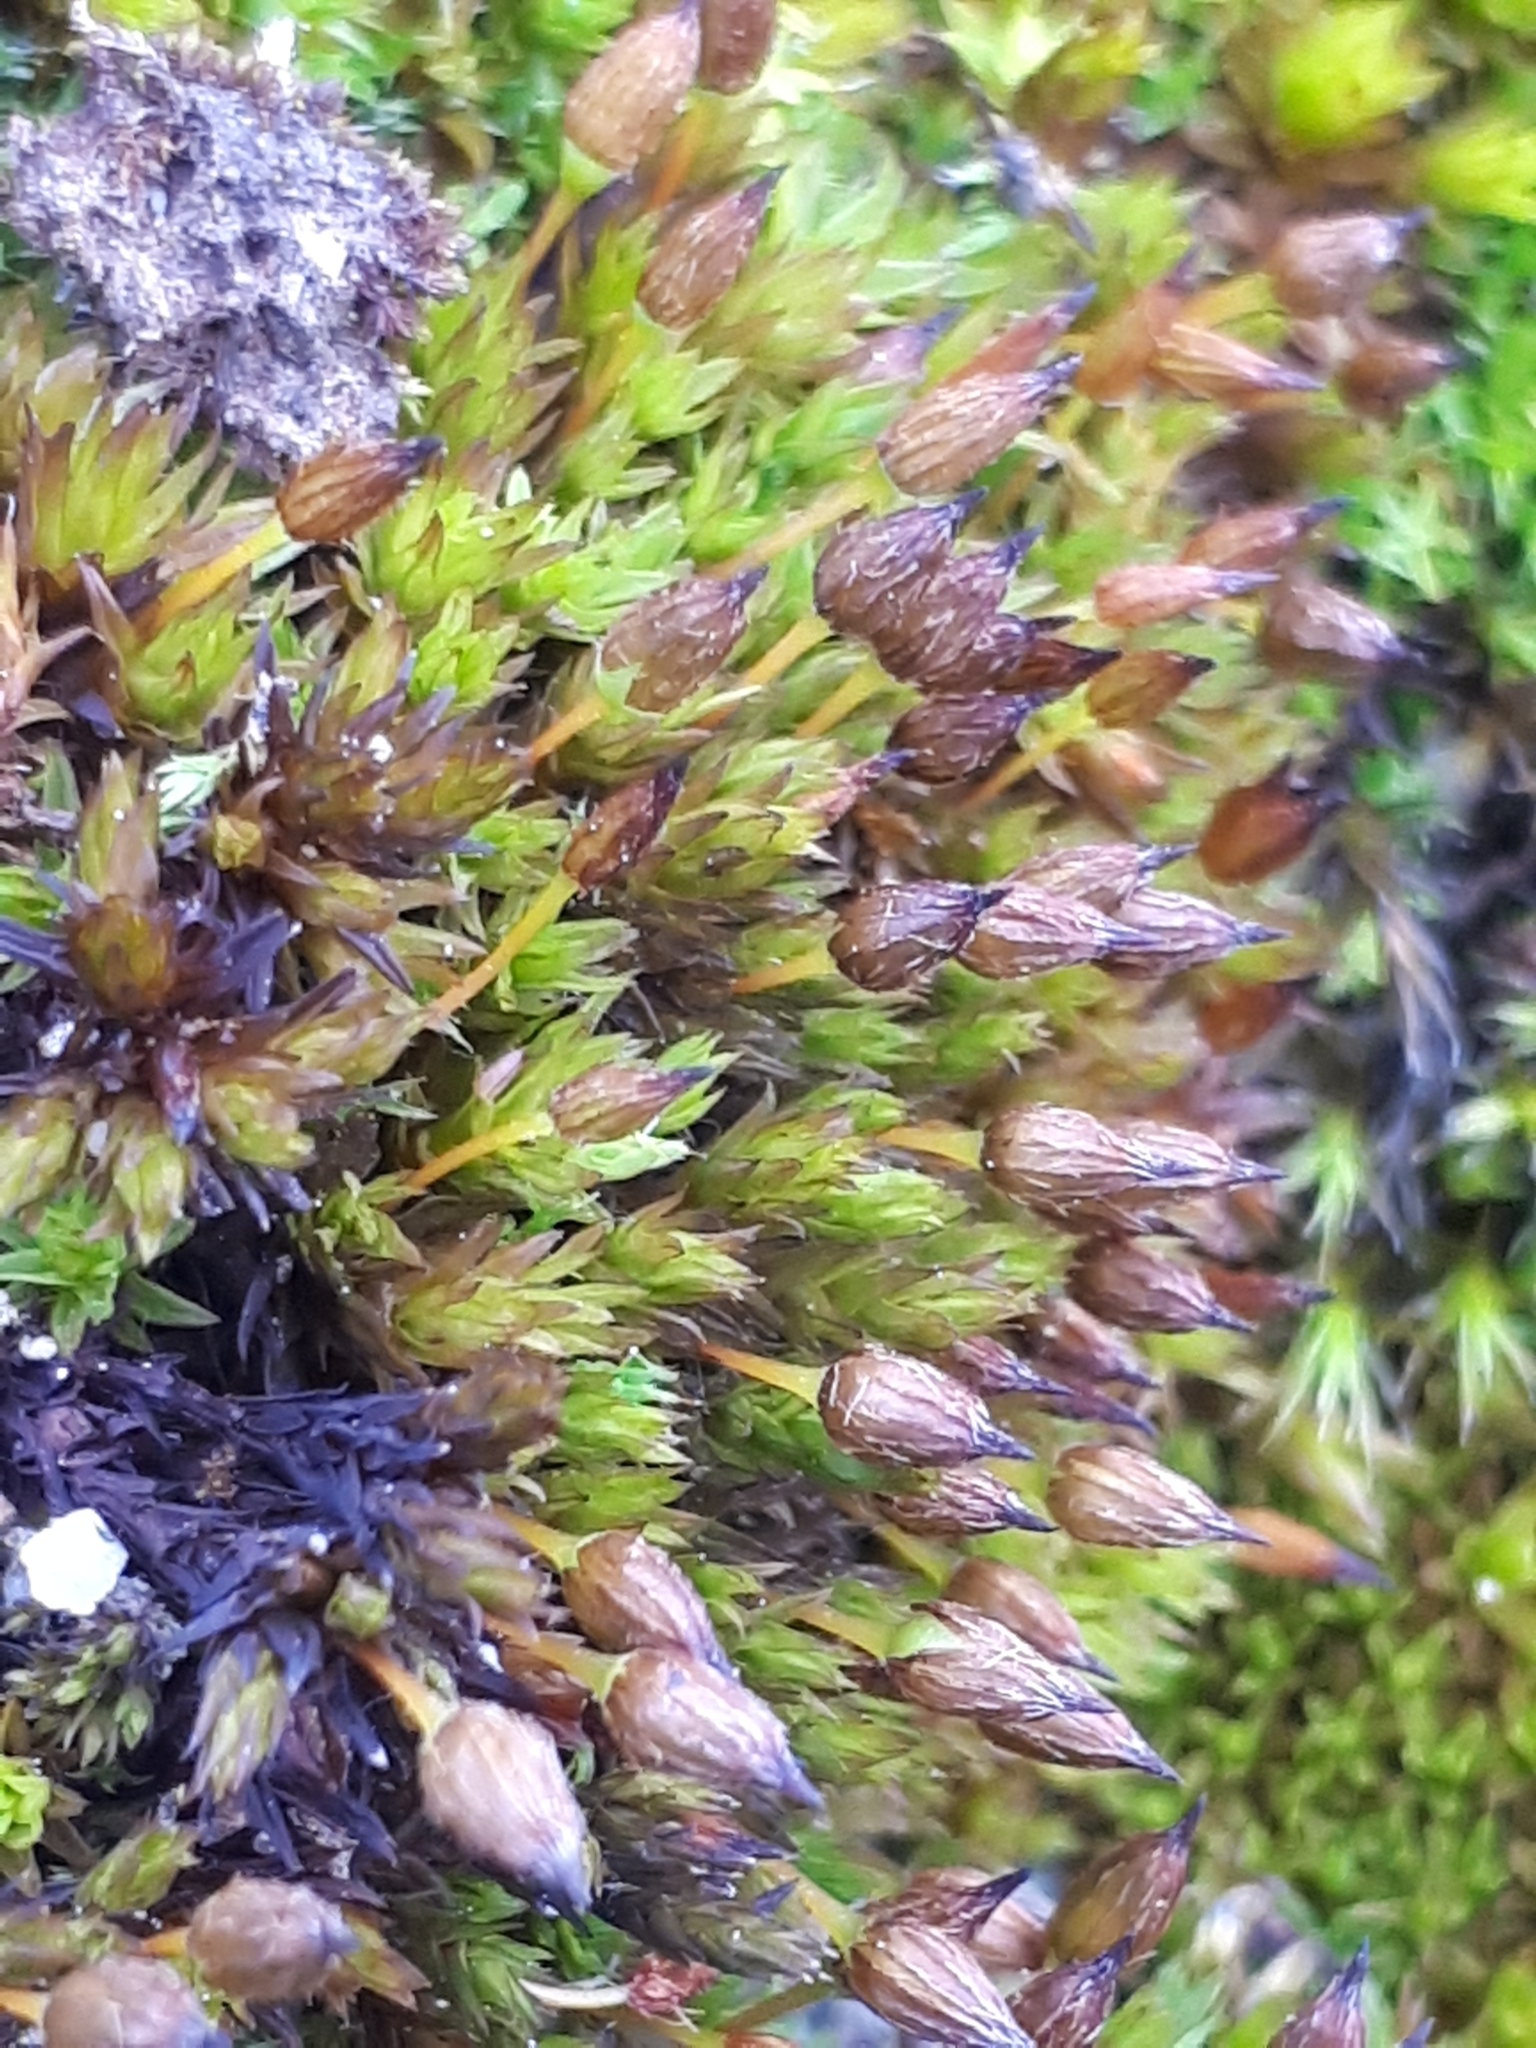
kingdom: Plantae
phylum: Bryophyta
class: Bryopsida
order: Orthotrichales
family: Orthotrichaceae
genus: Orthotrichum
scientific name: Orthotrichum anomalum
